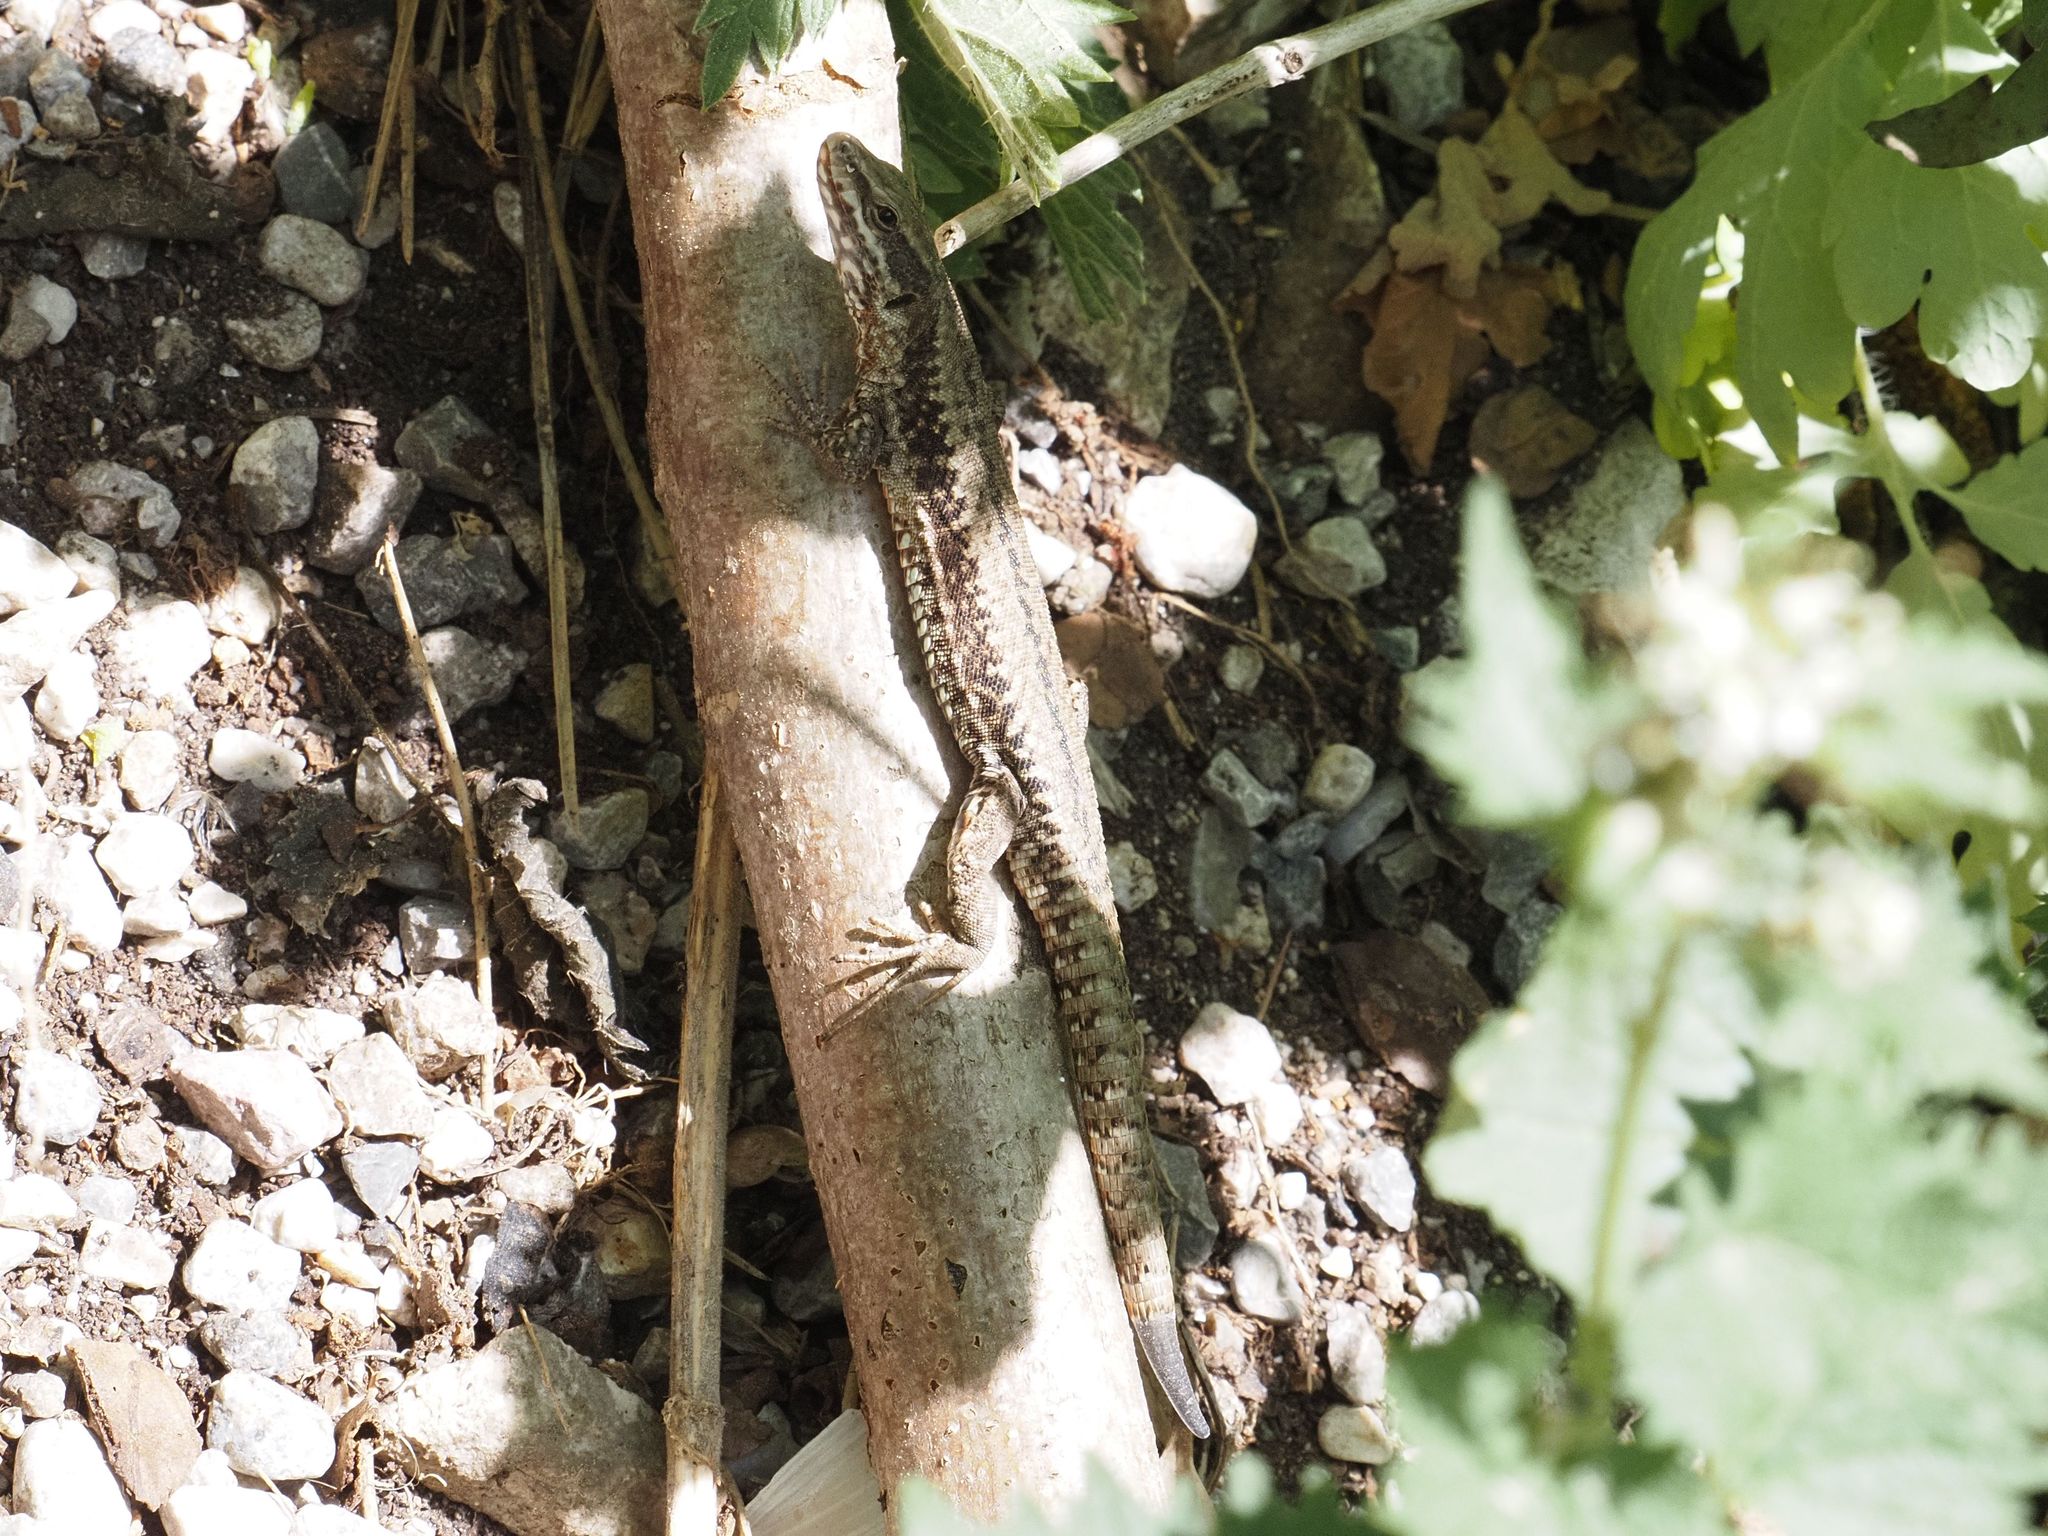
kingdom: Animalia
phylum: Chordata
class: Squamata
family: Lacertidae
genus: Podarcis
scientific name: Podarcis muralis
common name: Common wall lizard
